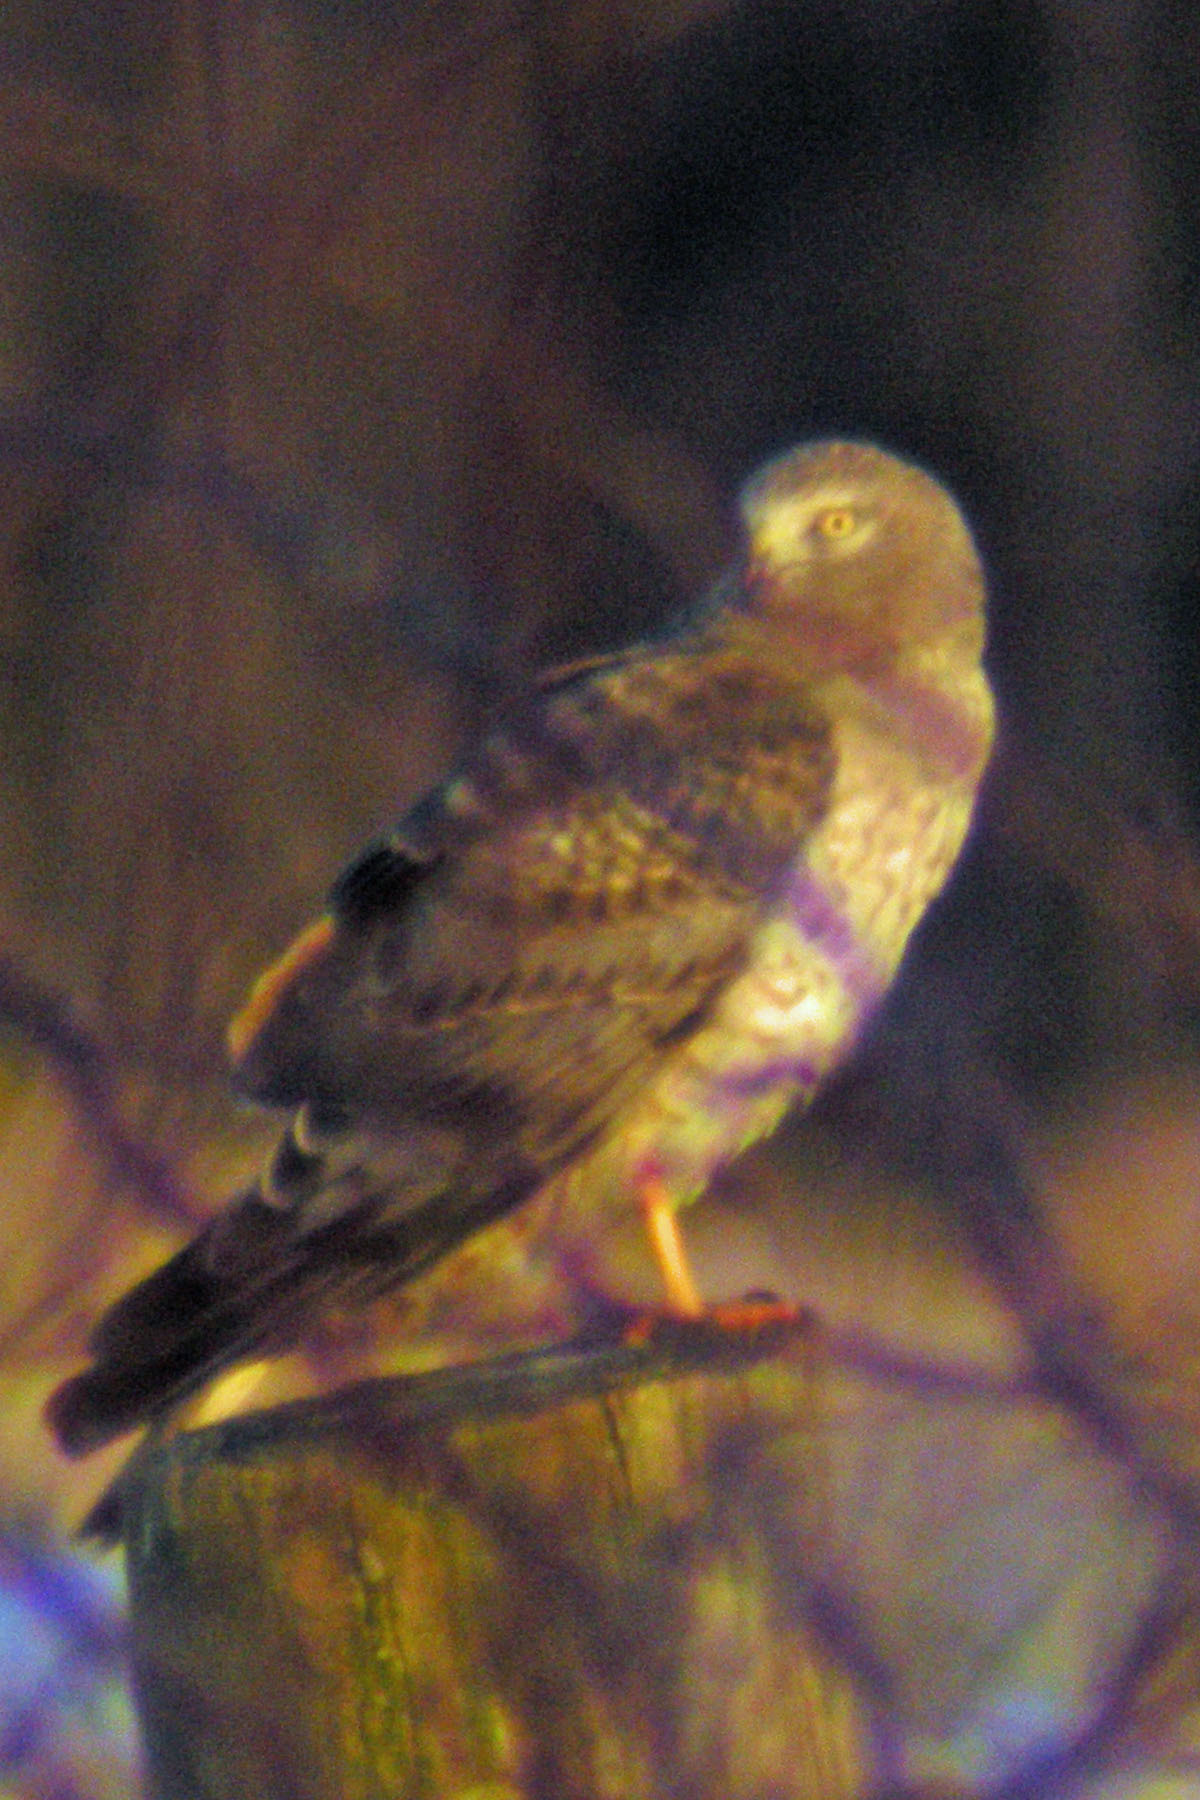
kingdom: Animalia
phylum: Chordata
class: Aves
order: Accipitriformes
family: Accipitridae
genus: Circus
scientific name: Circus cyaneus
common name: Hen harrier
